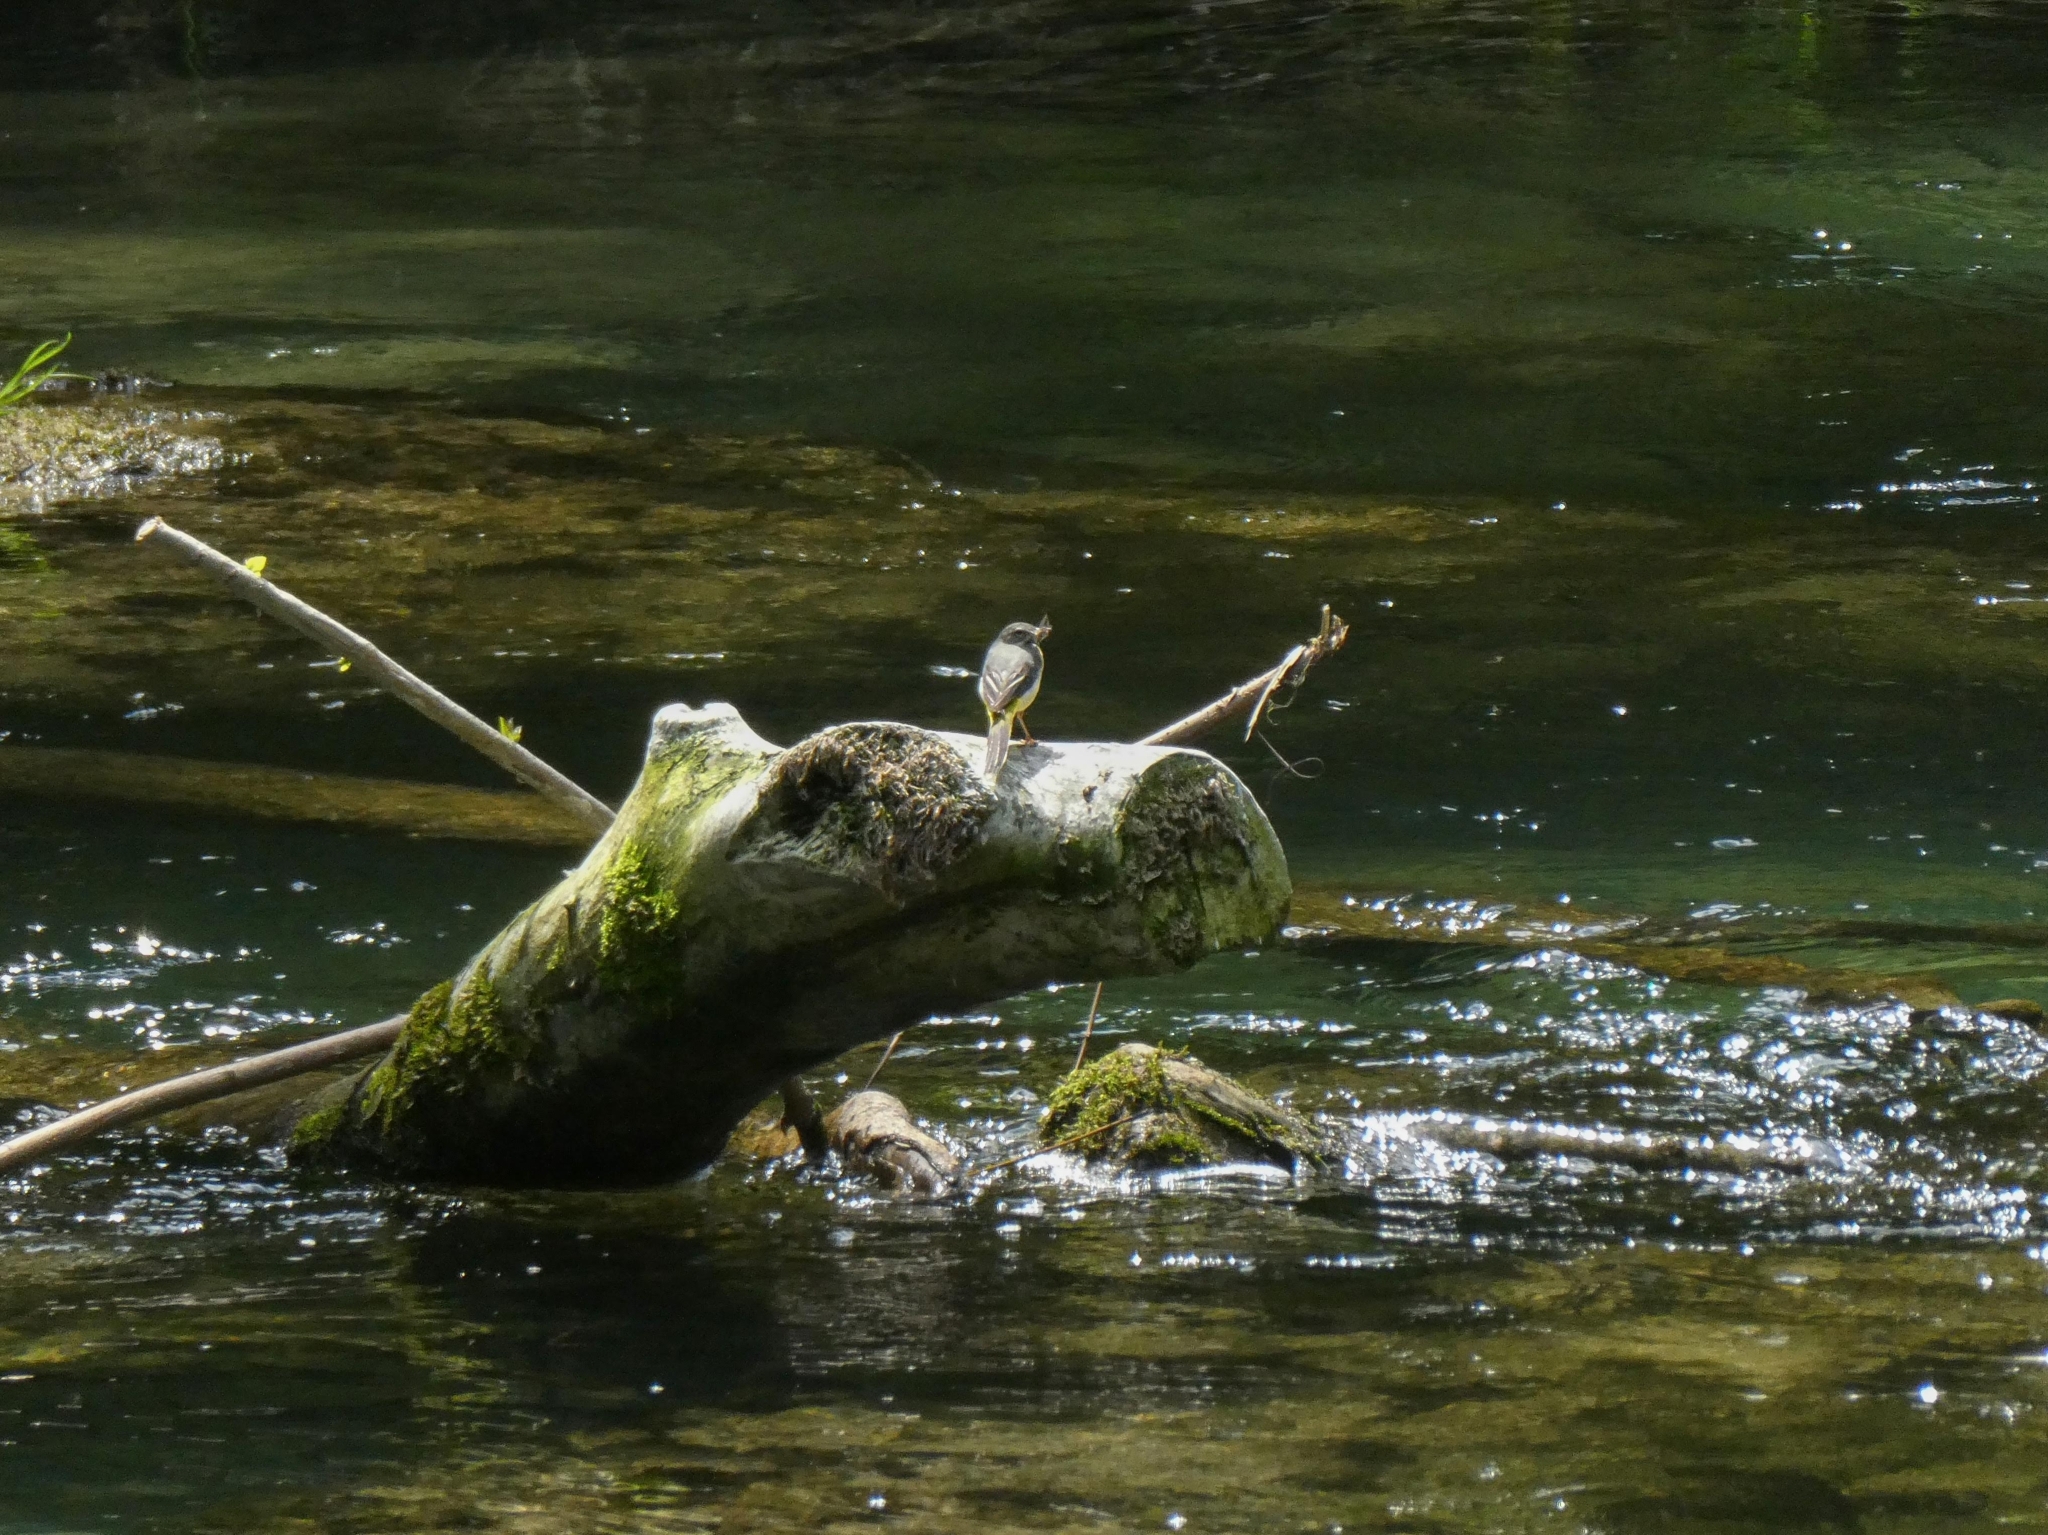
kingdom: Animalia
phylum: Chordata
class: Aves
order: Passeriformes
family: Motacillidae
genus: Motacilla
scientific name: Motacilla cinerea
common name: Grey wagtail
